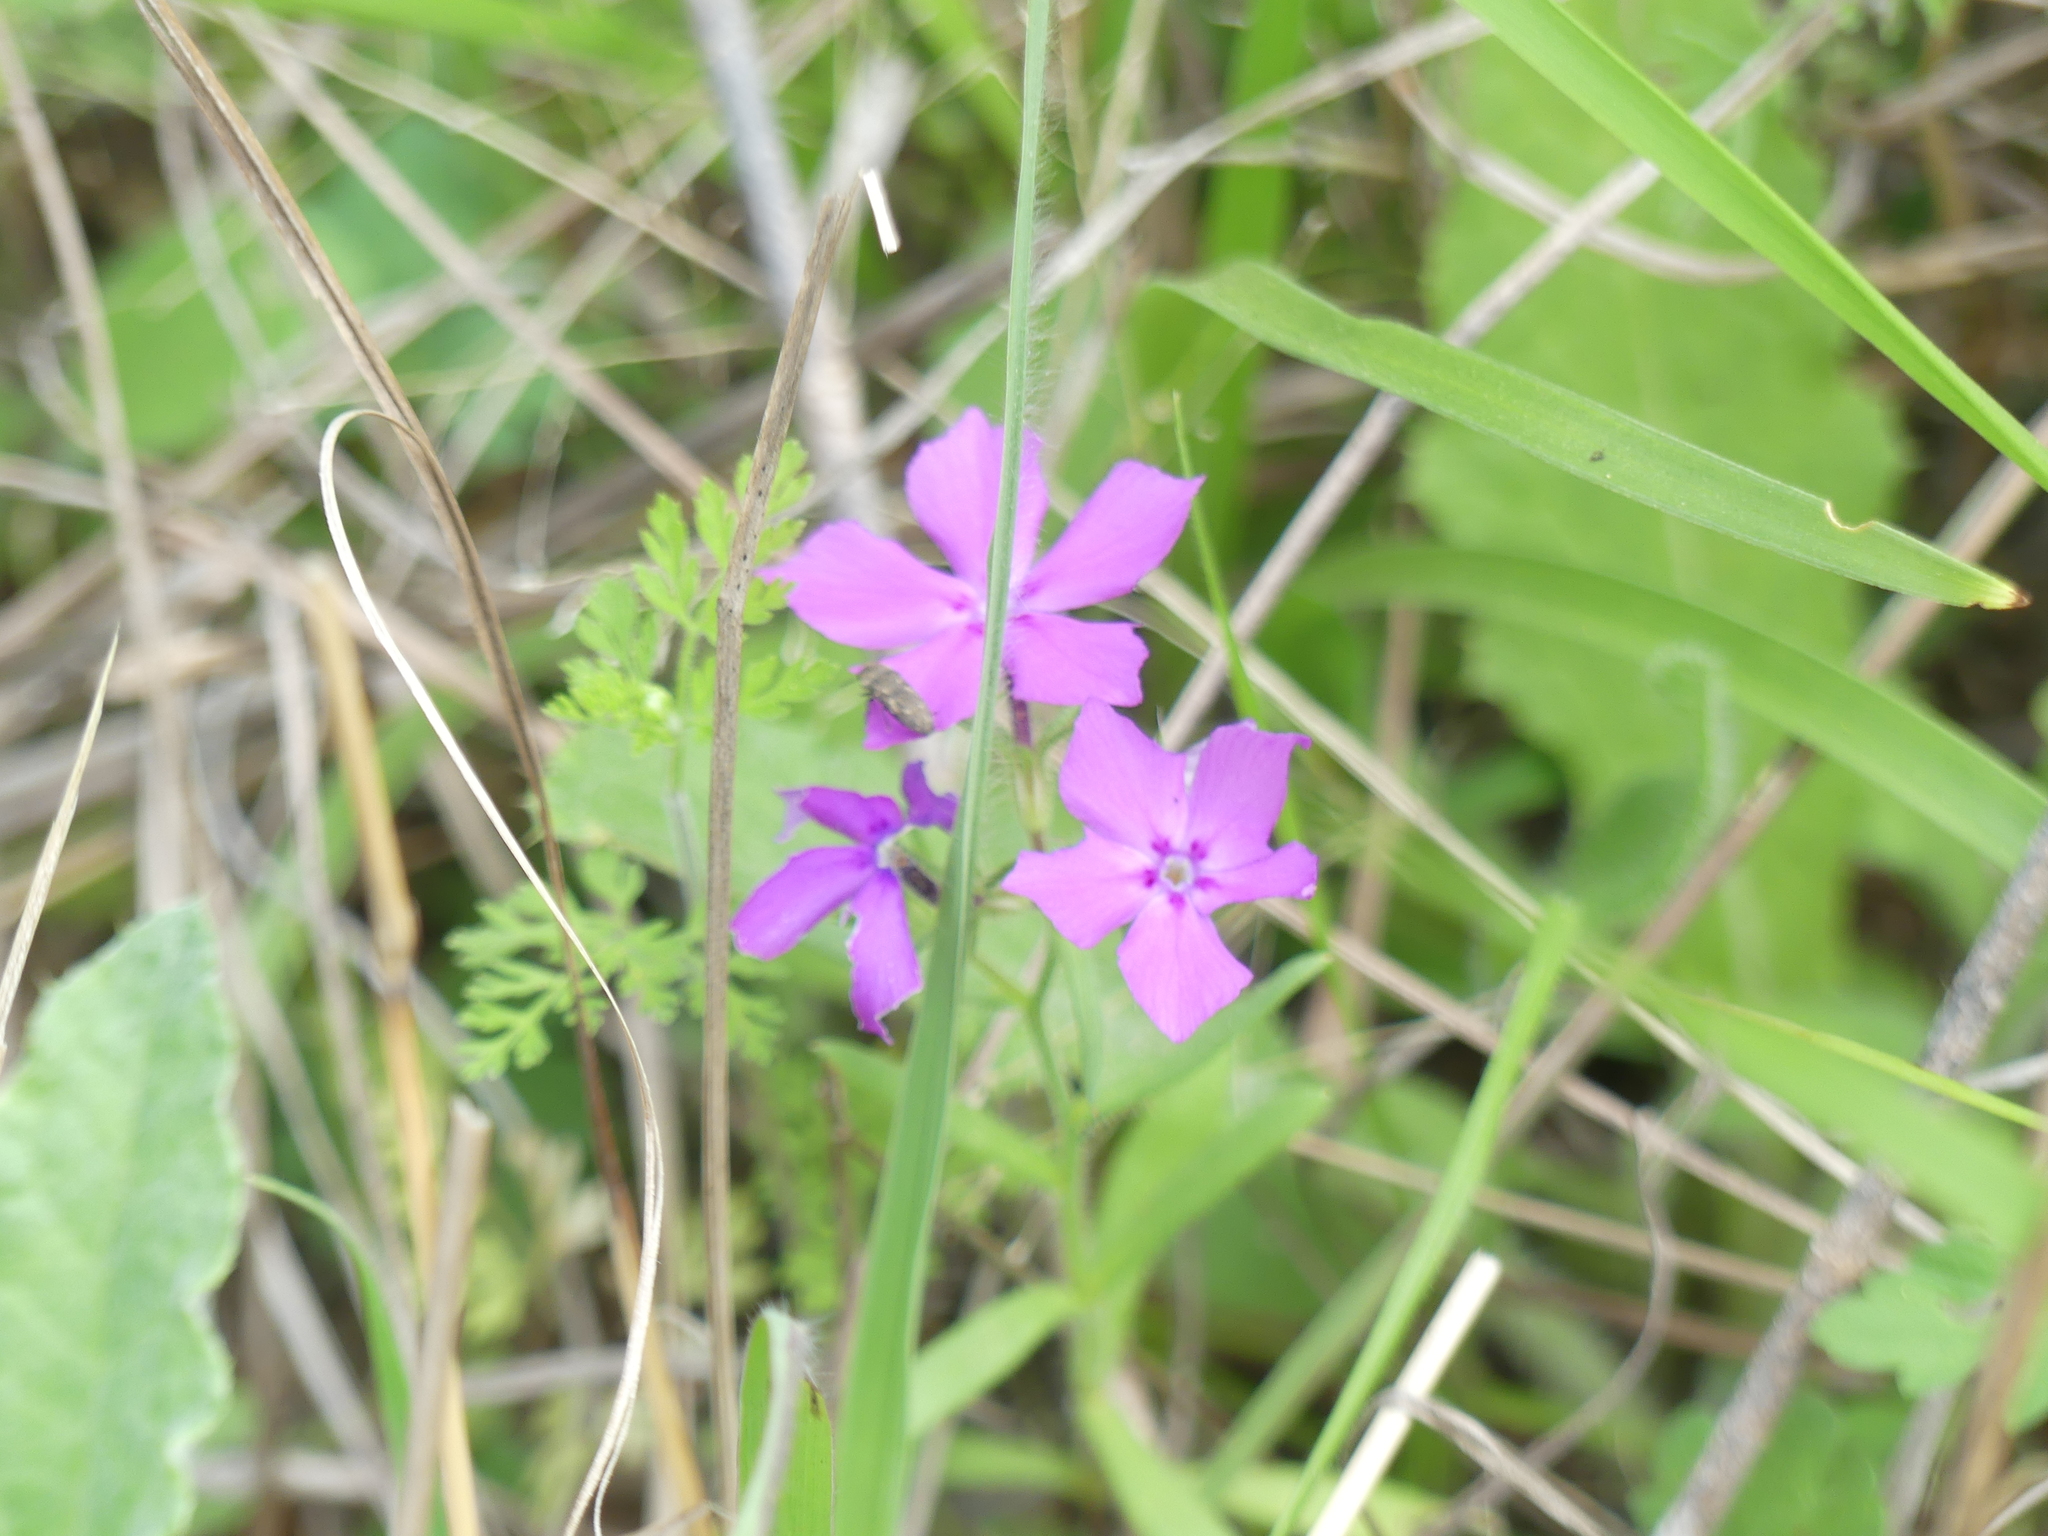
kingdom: Plantae
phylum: Tracheophyta
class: Magnoliopsida
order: Ericales
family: Polemoniaceae
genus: Phlox
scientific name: Phlox cuspidata
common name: Pointed phlox
